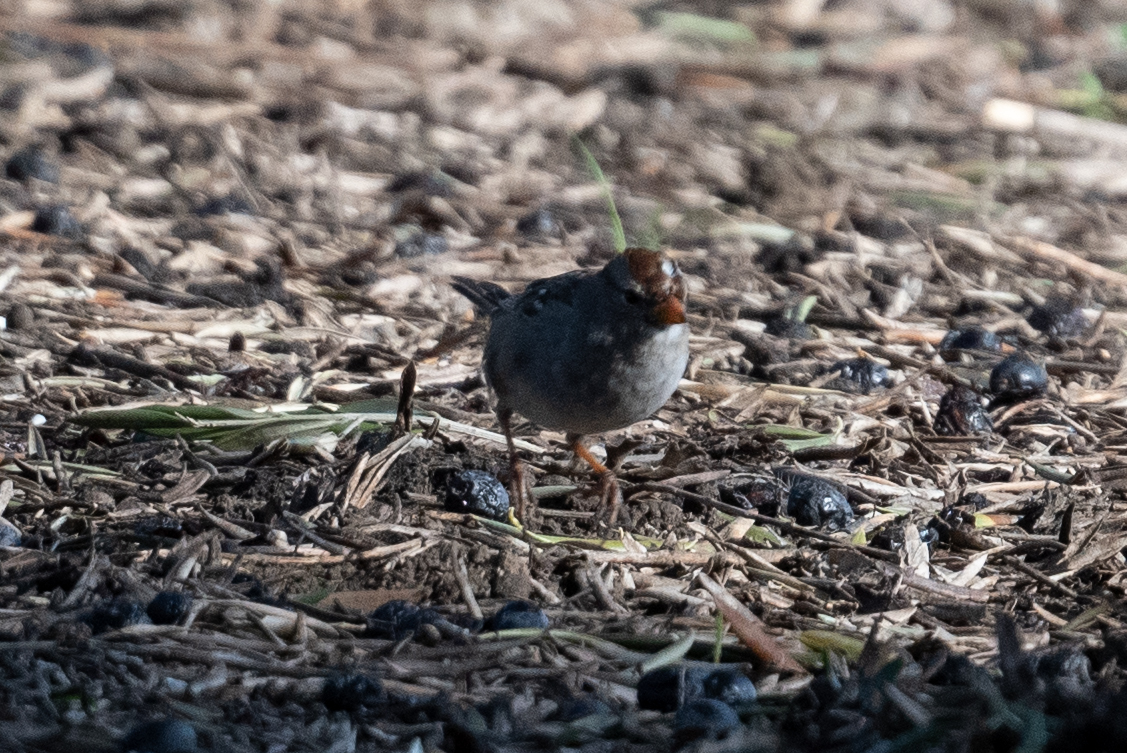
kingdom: Animalia
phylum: Chordata
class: Aves
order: Passeriformes
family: Passerellidae
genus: Zonotrichia
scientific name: Zonotrichia leucophrys
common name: White-crowned sparrow
